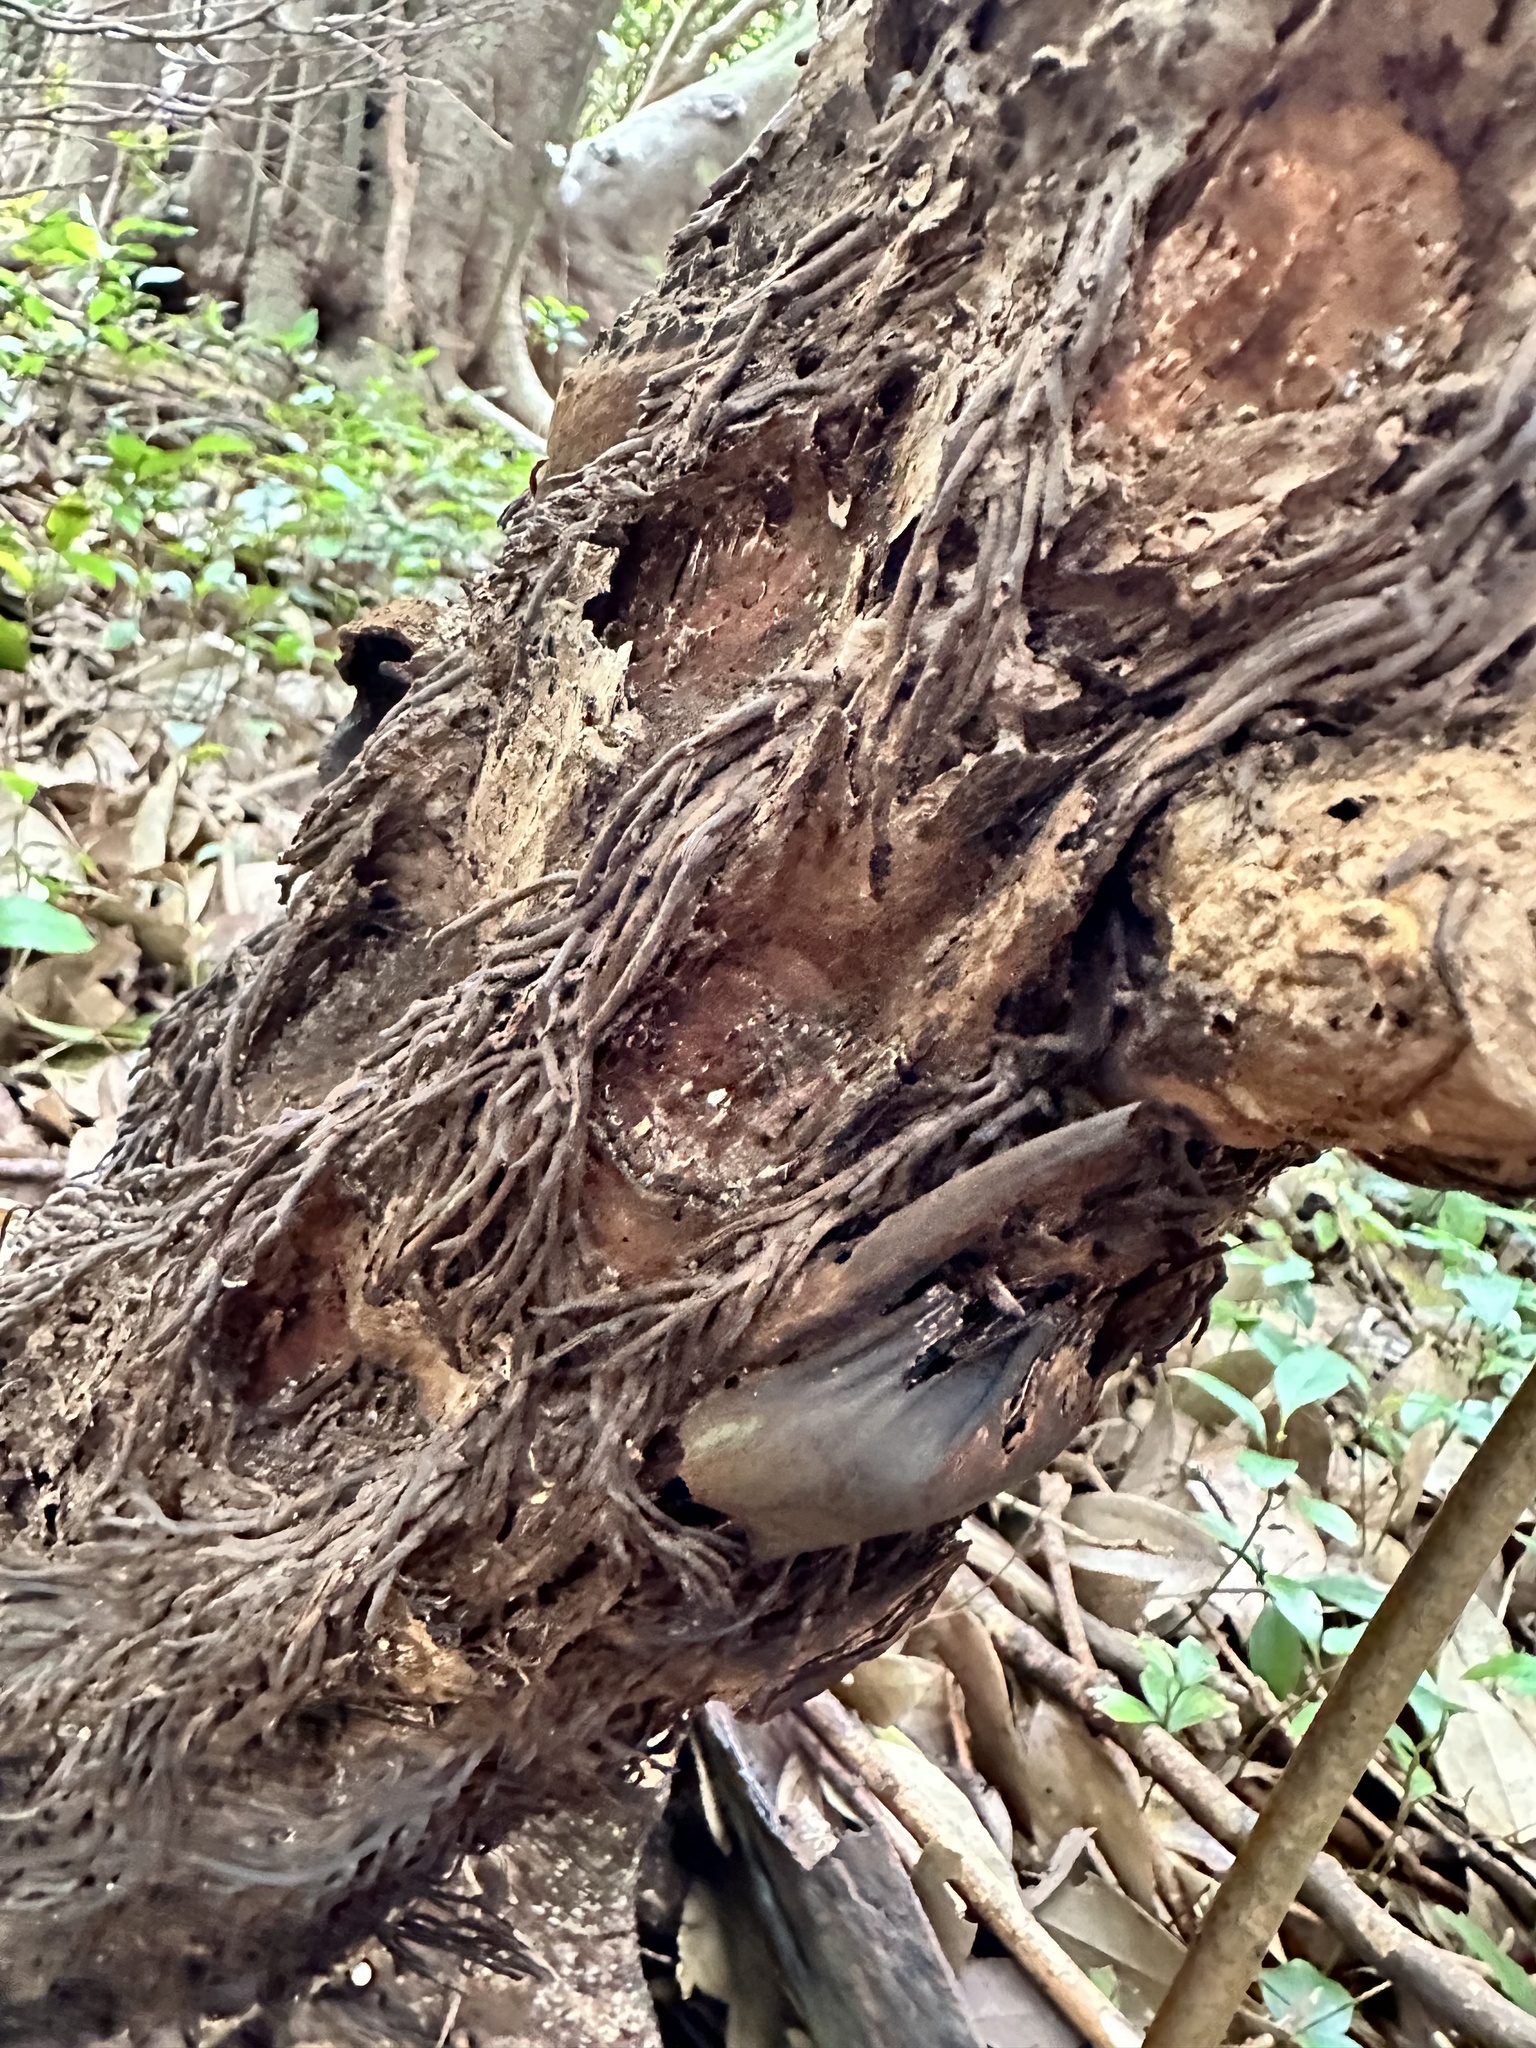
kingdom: Plantae
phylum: Tracheophyta
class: Polypodiopsida
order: Cyatheales
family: Cibotiaceae
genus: Cibotium
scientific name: Cibotium chamissoi
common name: Hawaiian tree fern
